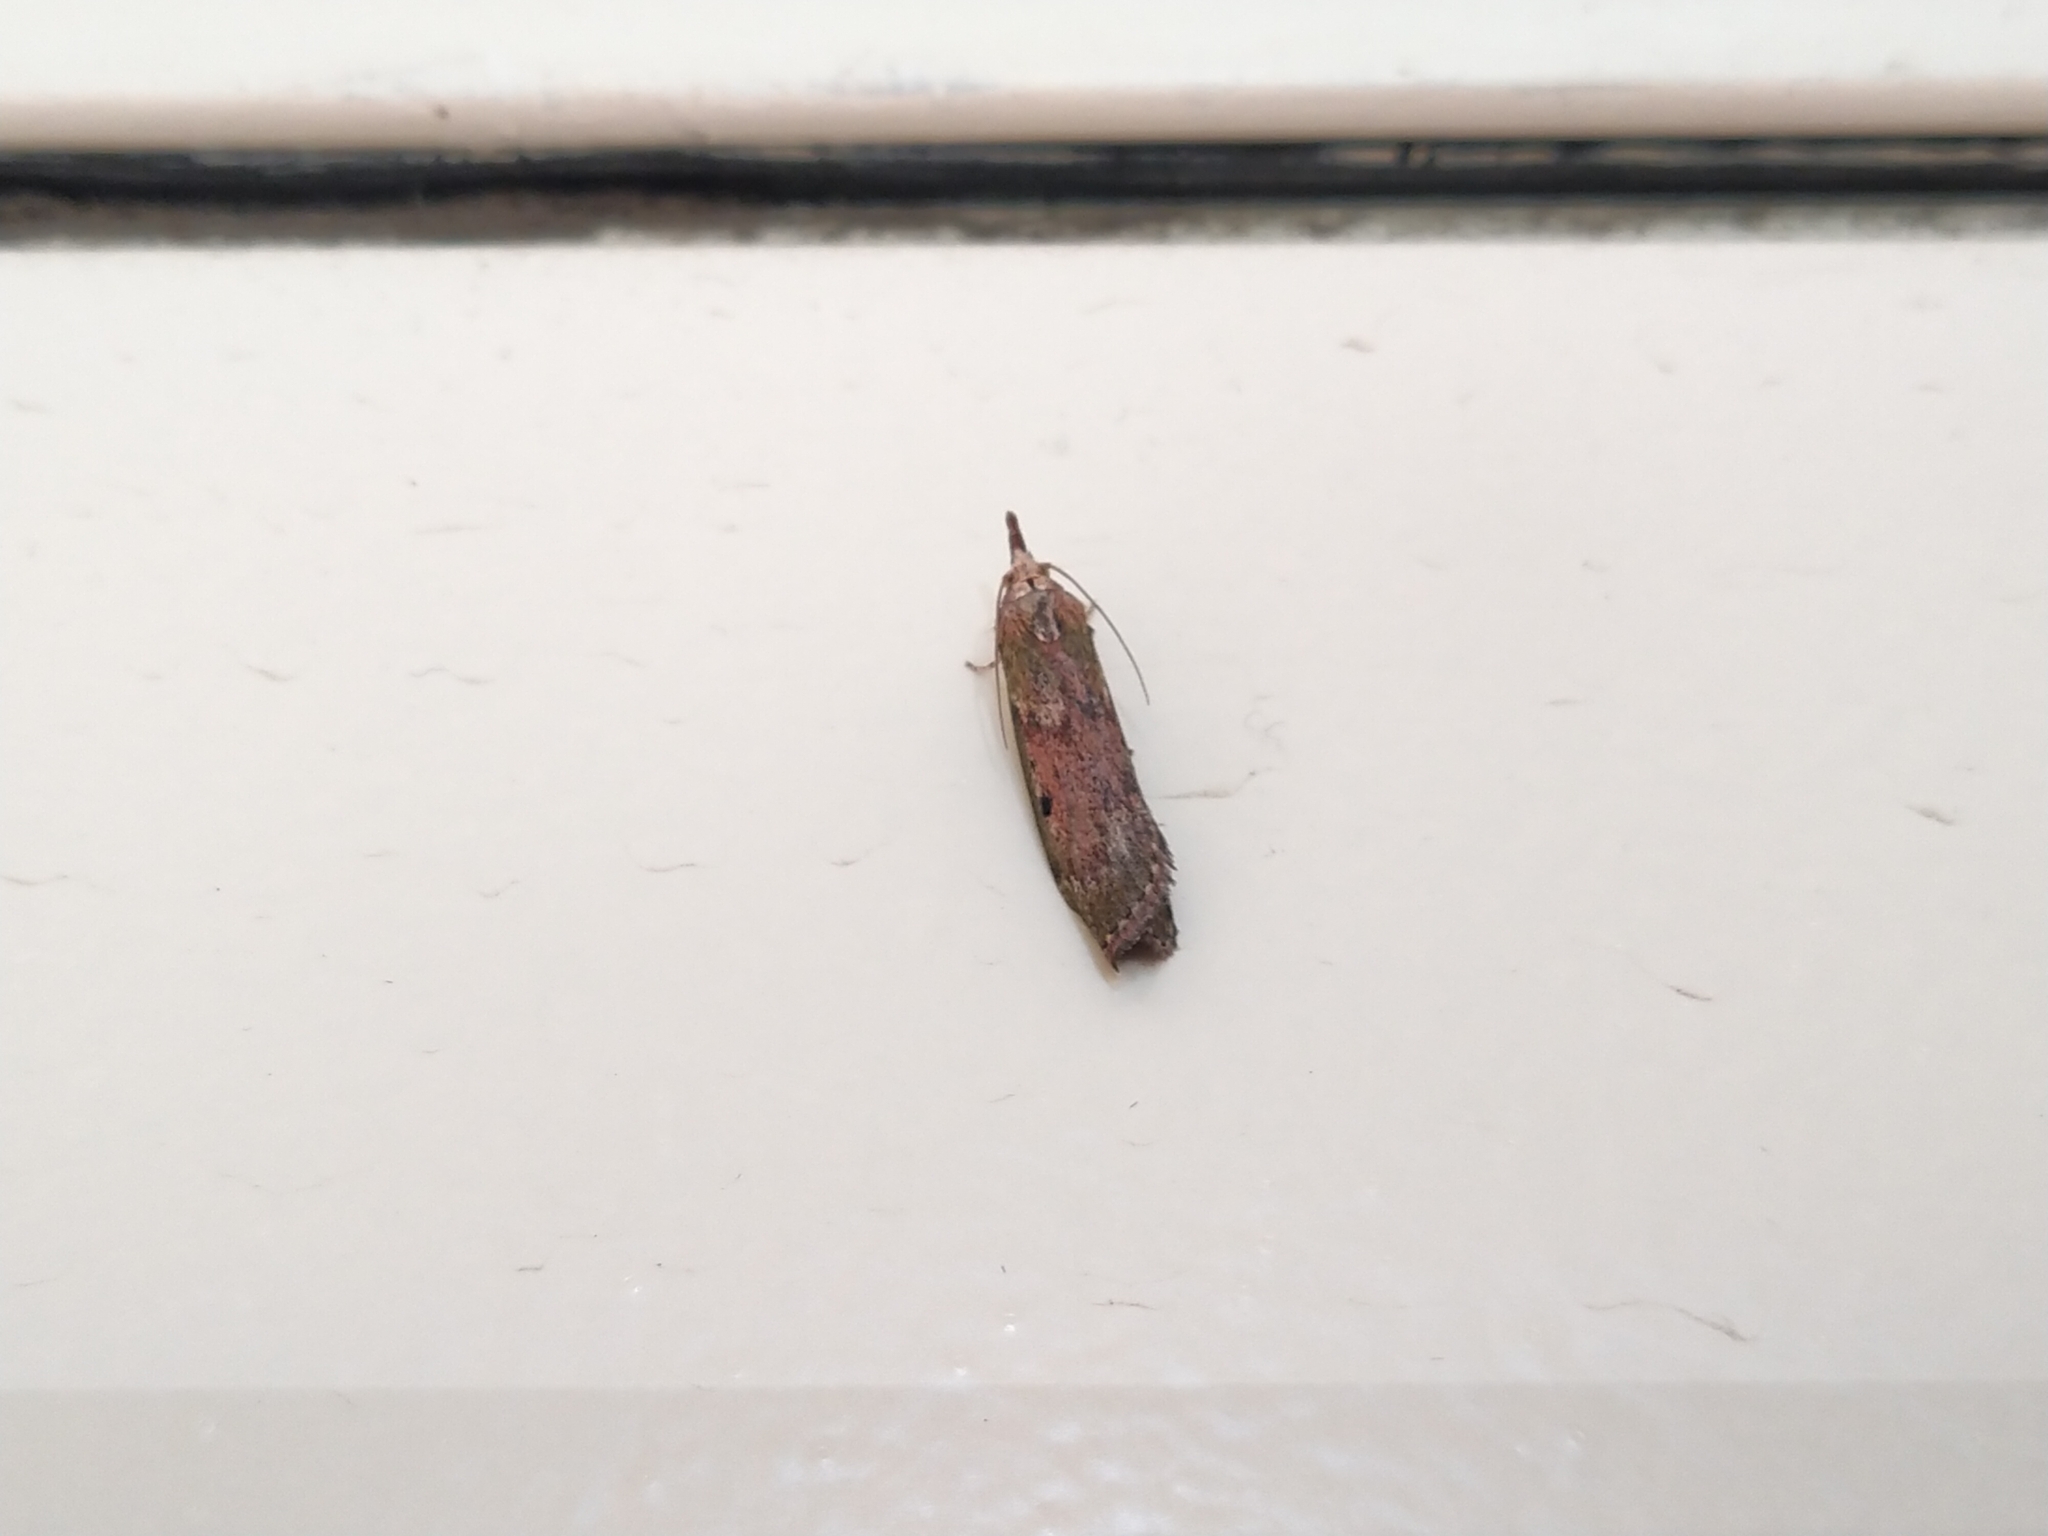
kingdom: Animalia
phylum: Arthropoda
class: Insecta
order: Lepidoptera
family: Pyralidae
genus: Aphomia
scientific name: Aphomia sociella
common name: Bee moth
